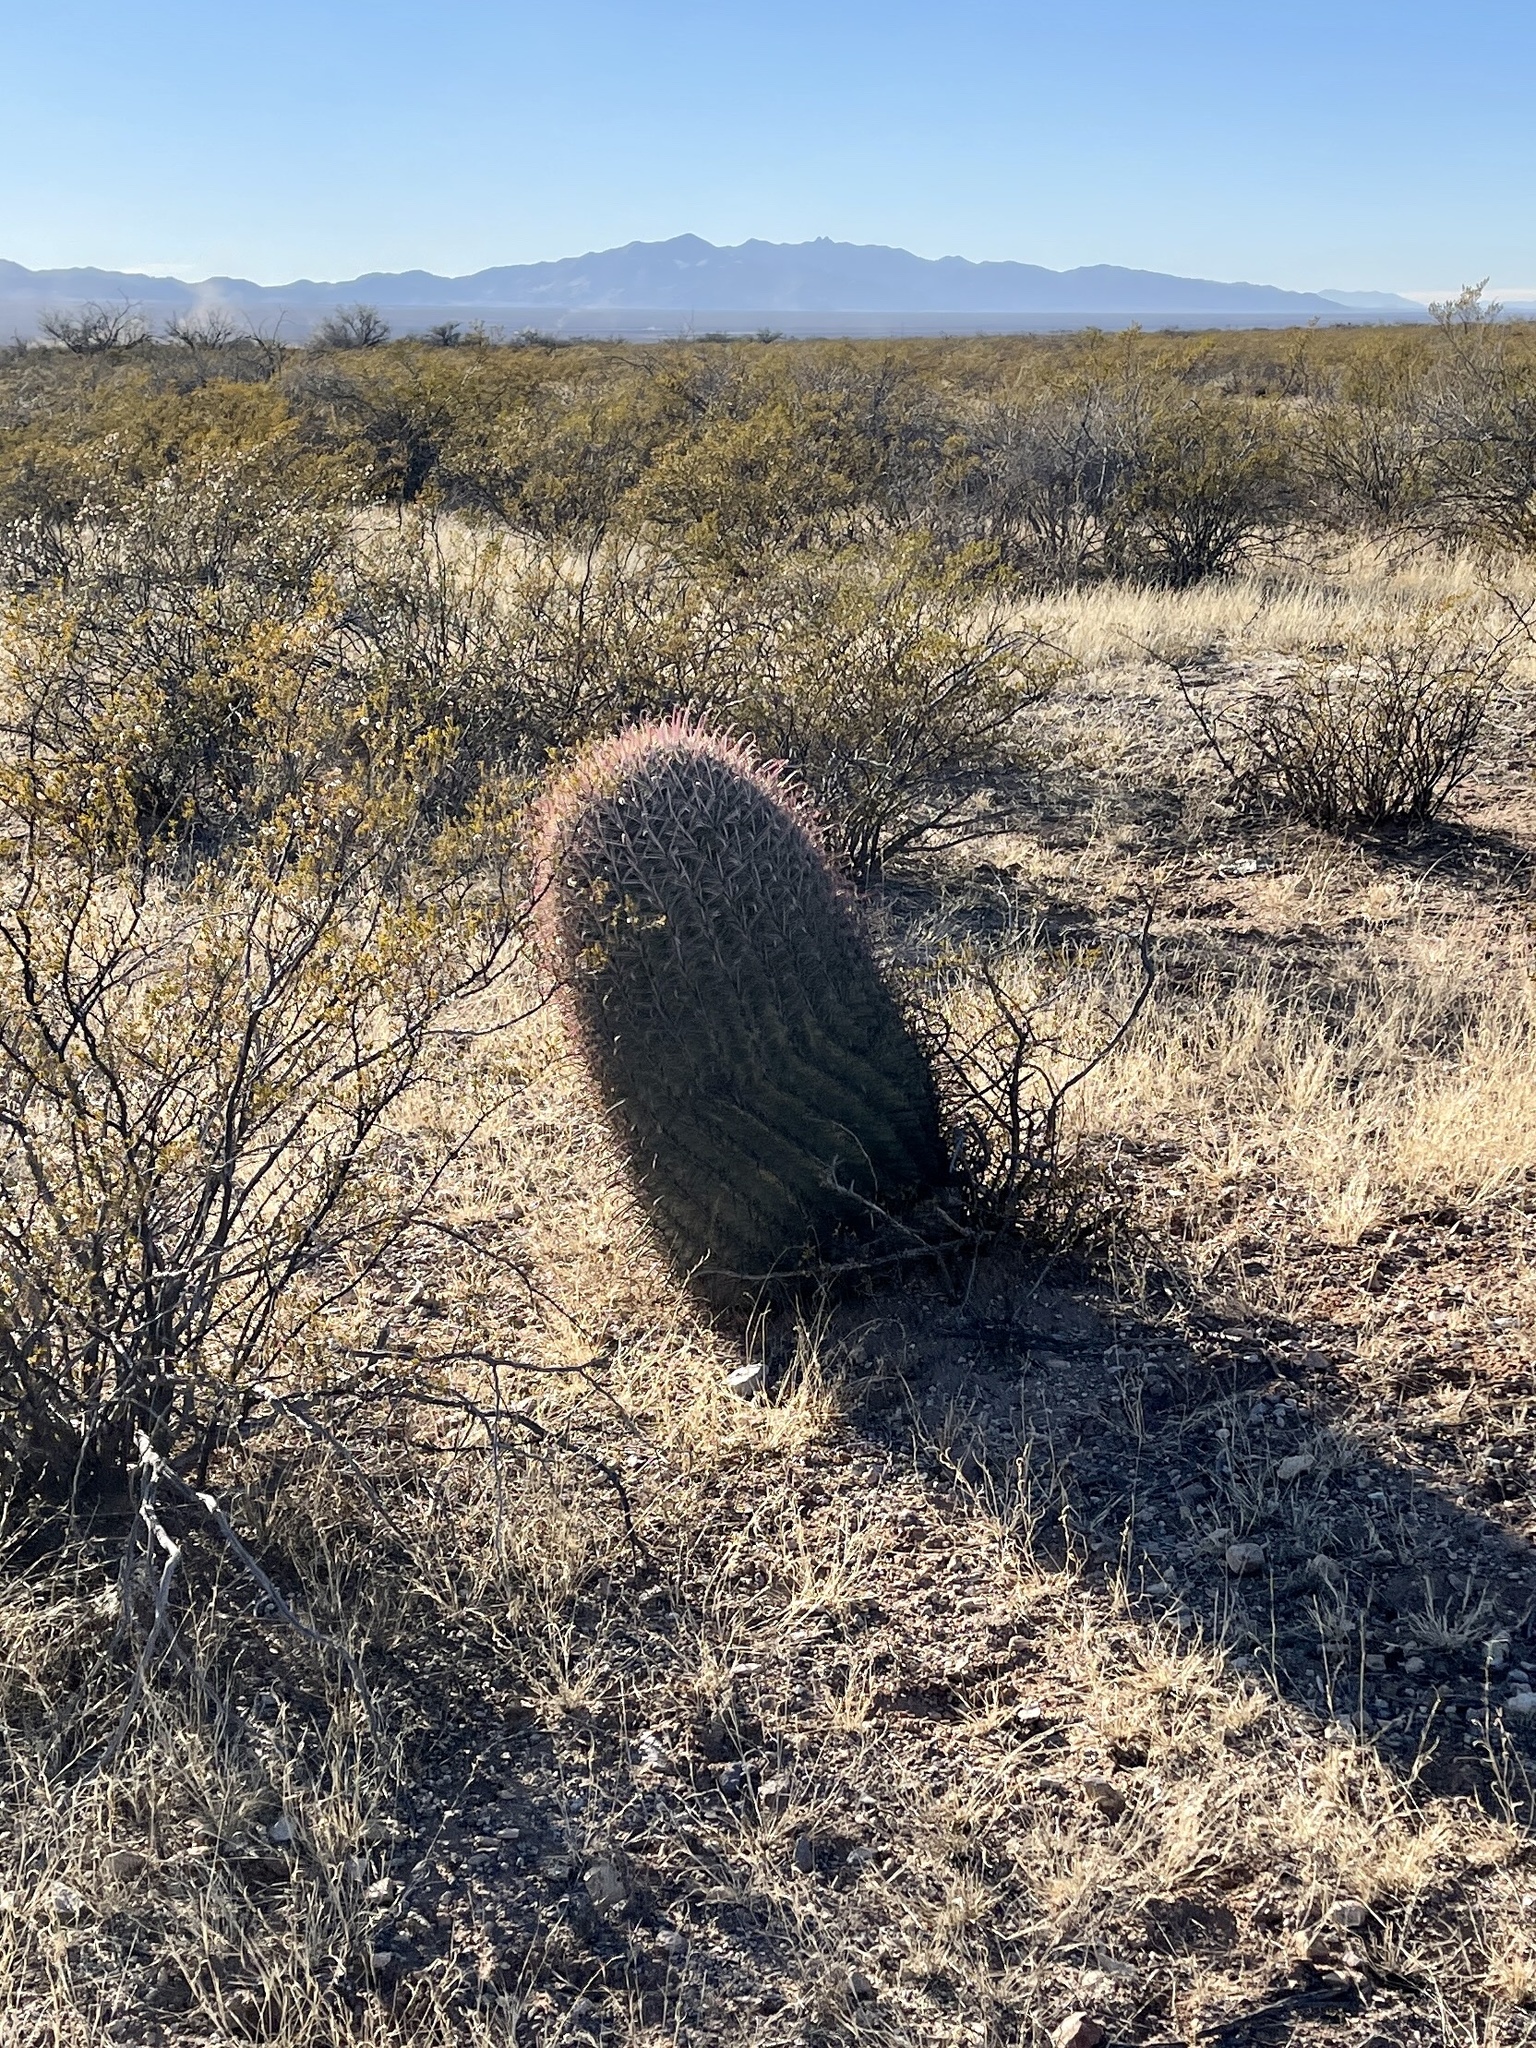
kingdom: Plantae
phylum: Tracheophyta
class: Magnoliopsida
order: Caryophyllales
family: Cactaceae
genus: Ferocactus
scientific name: Ferocactus wislizeni
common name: Candy barrel cactus
